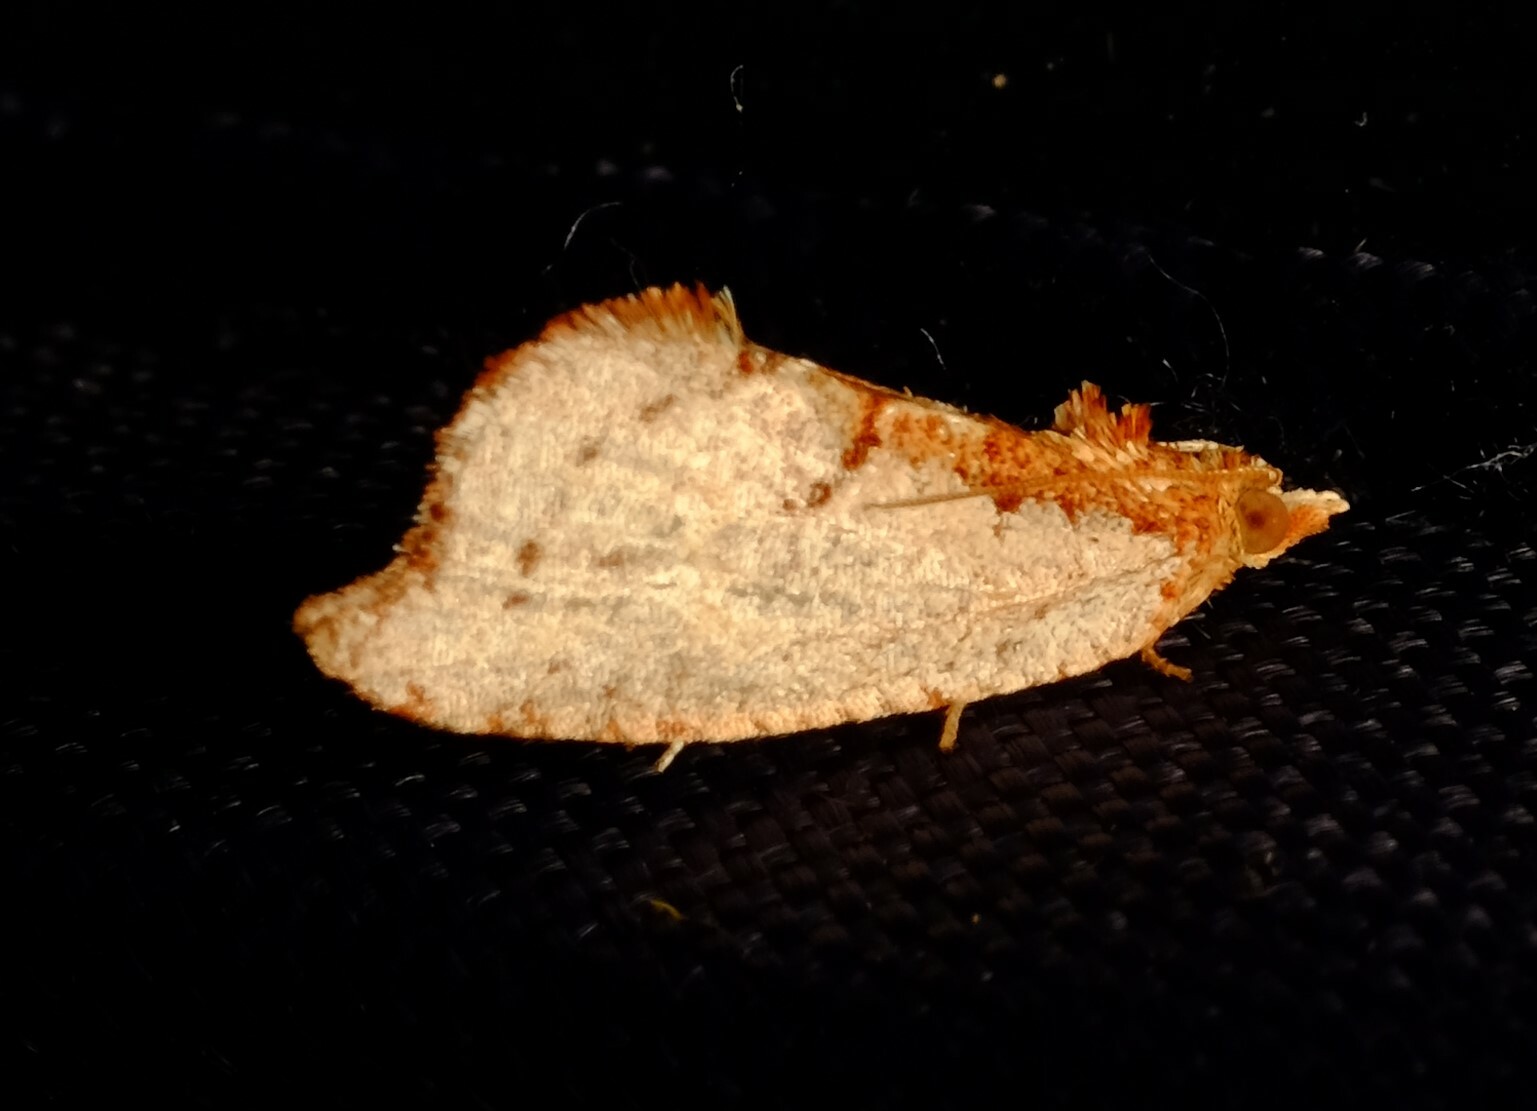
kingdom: Animalia
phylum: Arthropoda
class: Insecta
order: Lepidoptera
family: Tortricidae
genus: Glyphidoptera
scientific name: Glyphidoptera polymita
